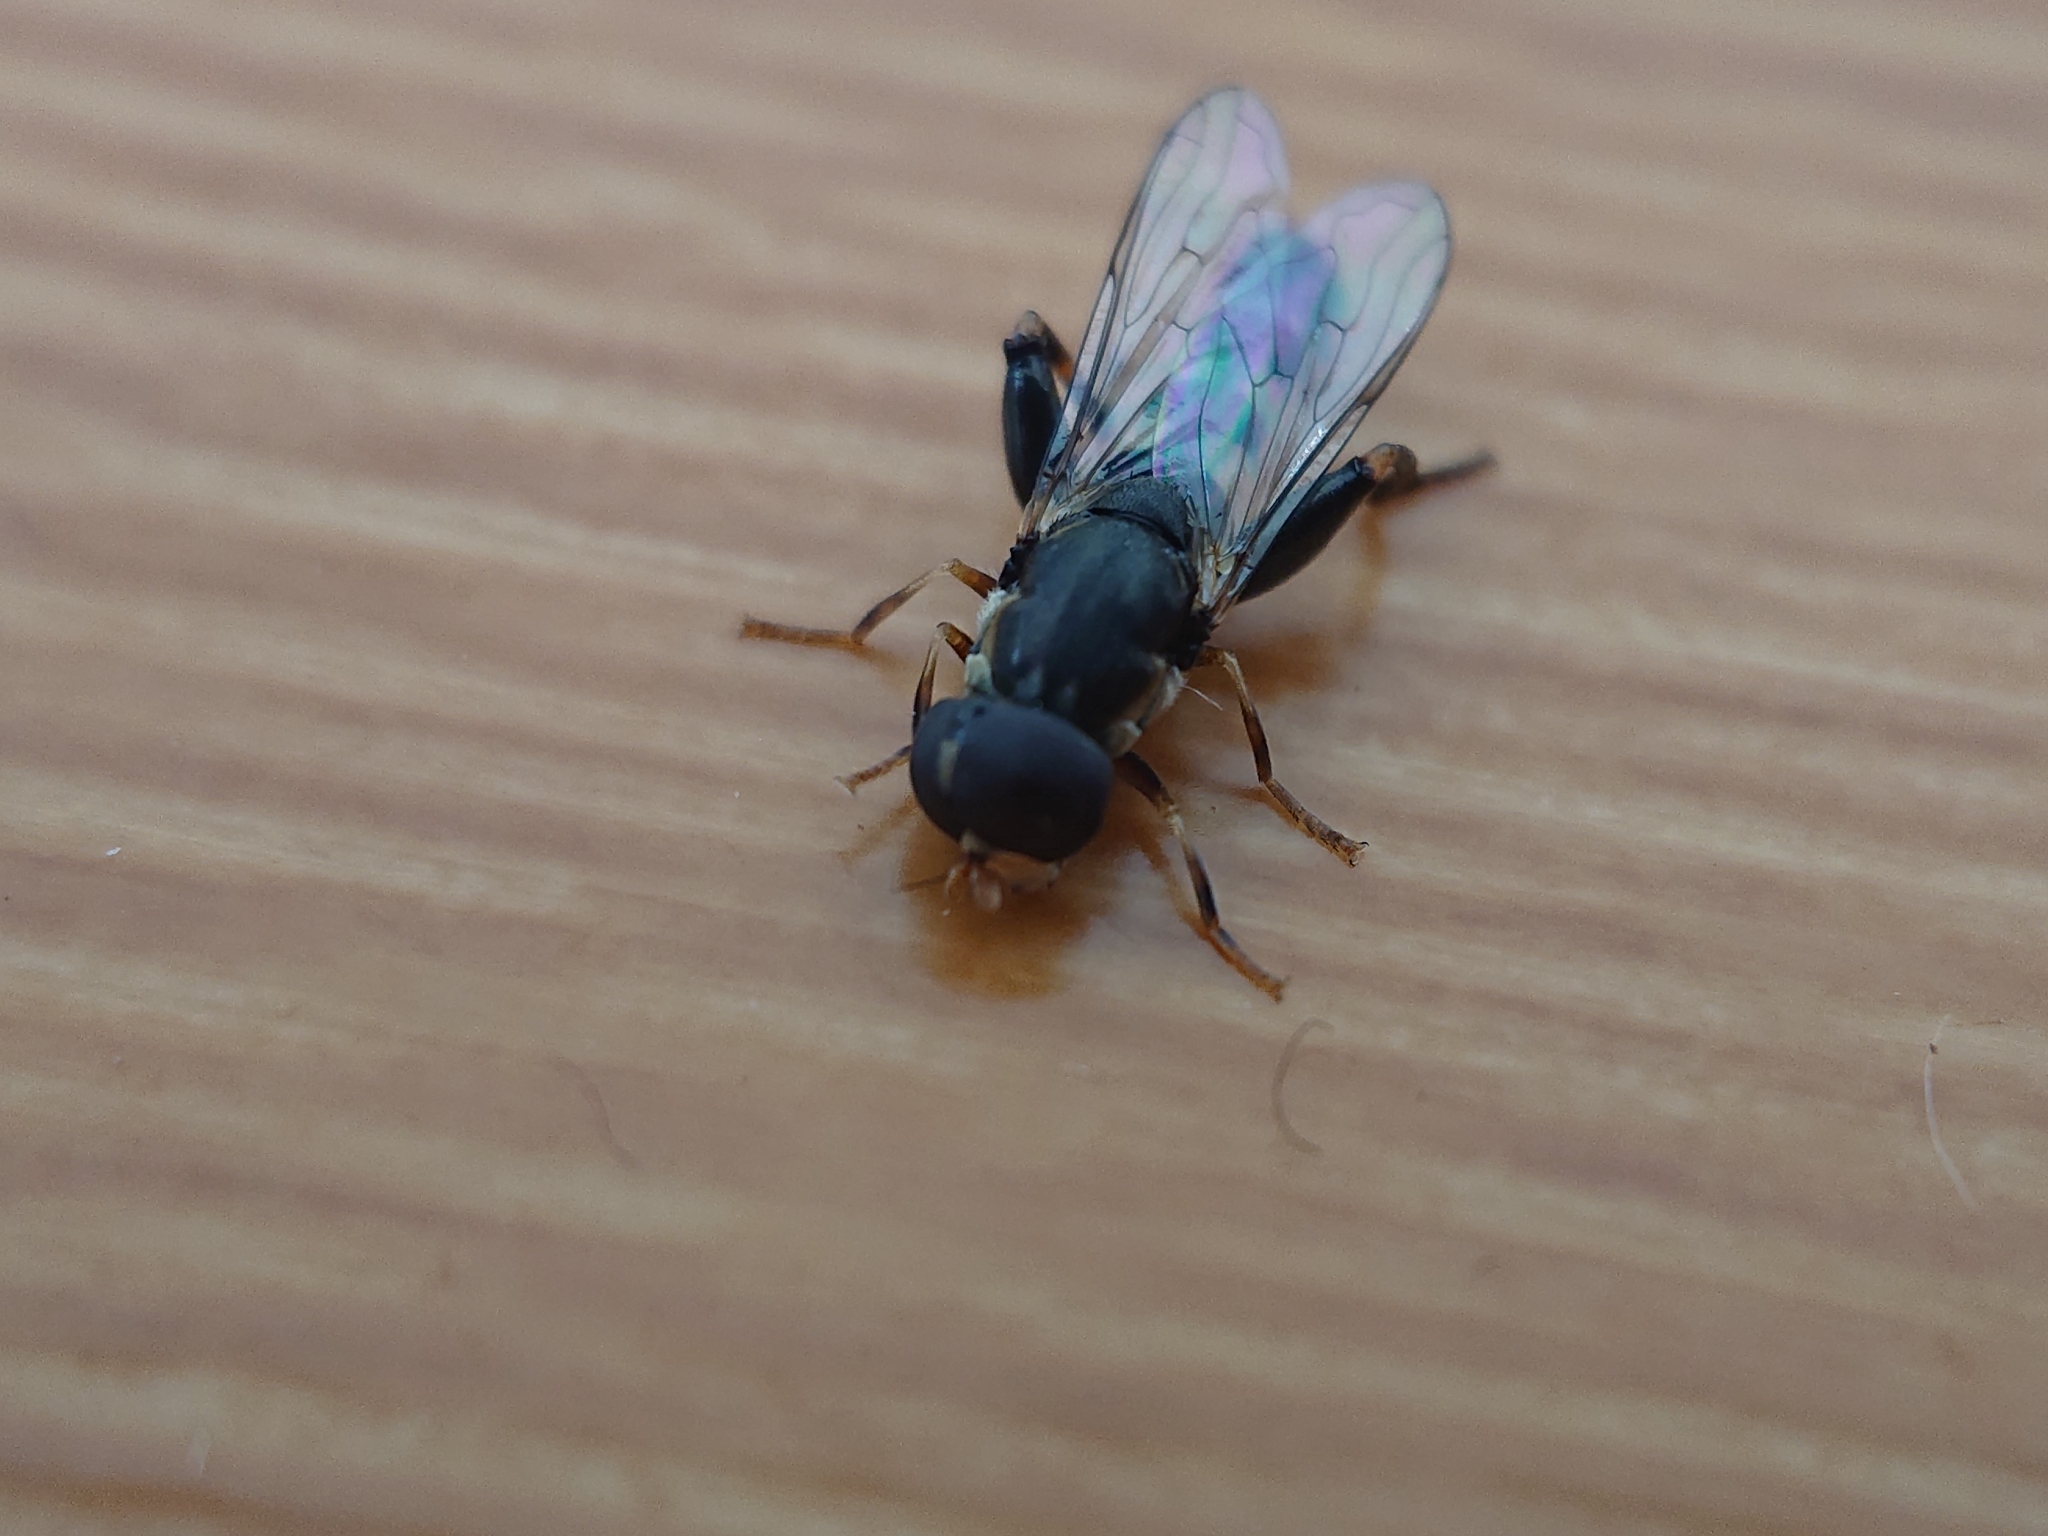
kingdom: Animalia
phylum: Arthropoda
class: Insecta
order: Diptera
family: Syrphidae
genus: Syritta
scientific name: Syritta pipiens
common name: Hover fly
